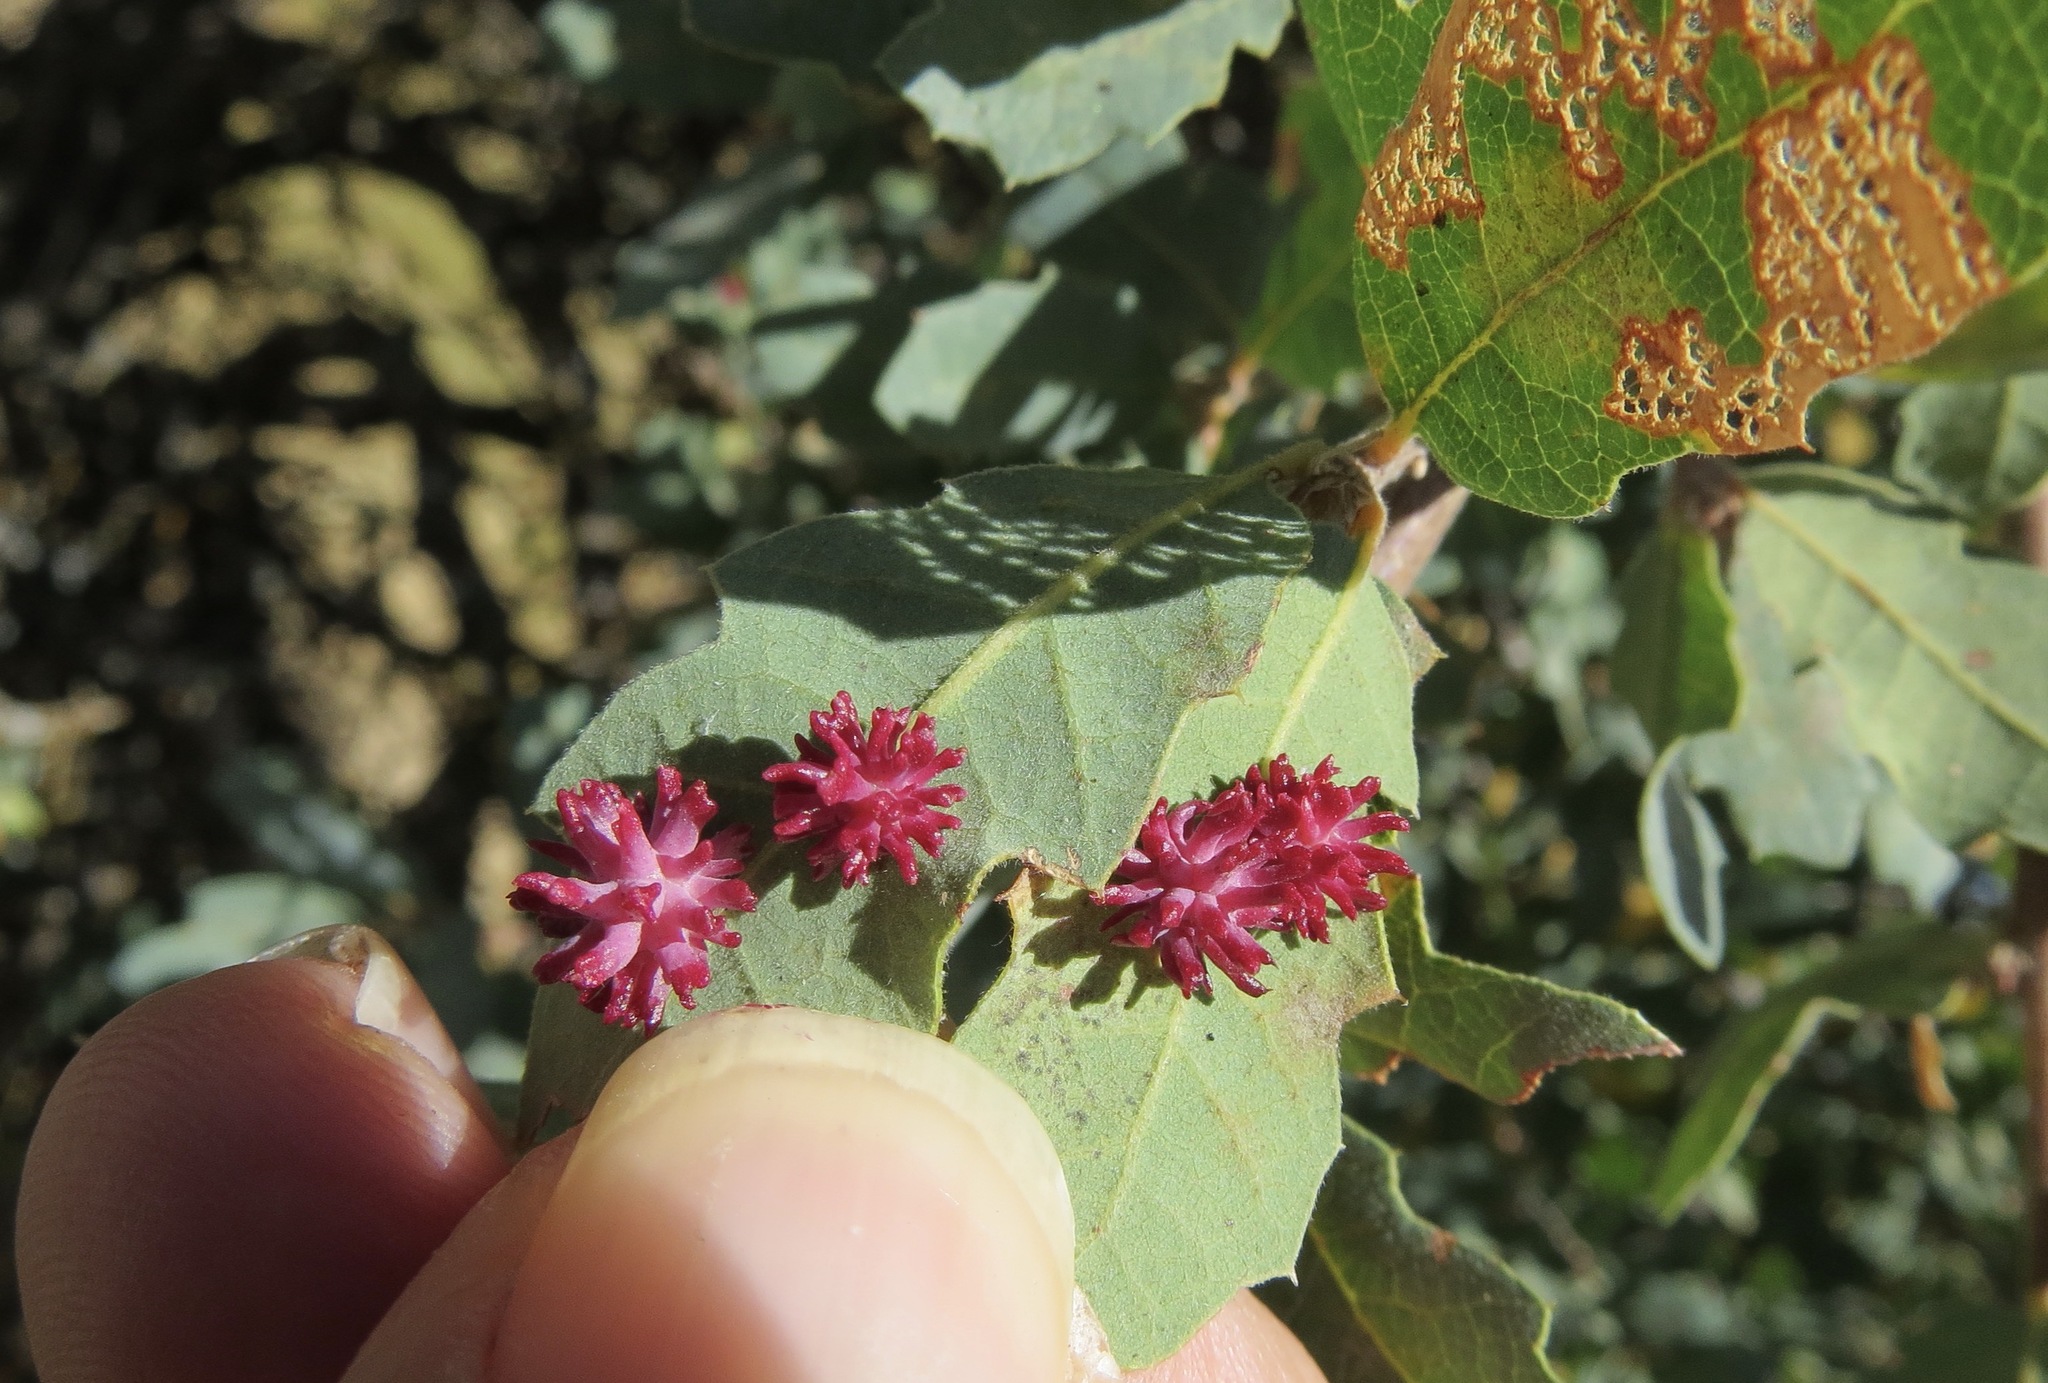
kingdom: Animalia
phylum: Arthropoda
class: Insecta
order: Hymenoptera
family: Cynipidae
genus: Cynips
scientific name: Cynips
